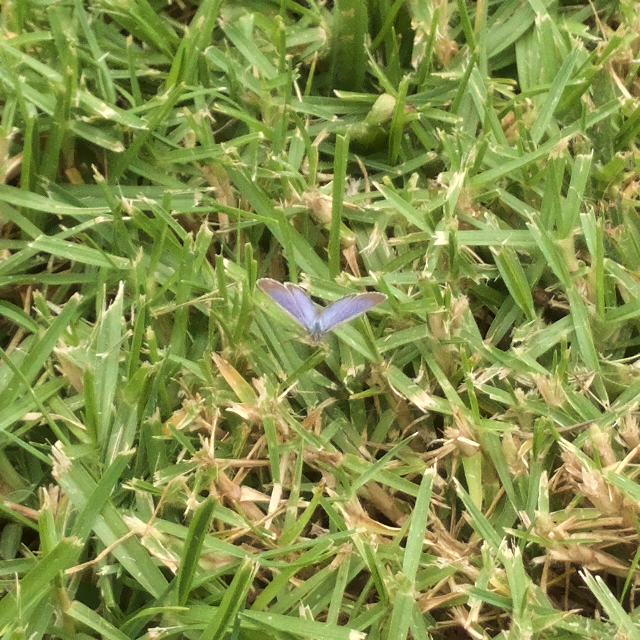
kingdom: Animalia
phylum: Arthropoda
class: Insecta
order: Lepidoptera
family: Lycaenidae
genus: Zizina
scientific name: Zizina otis
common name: Lesser grass blue
